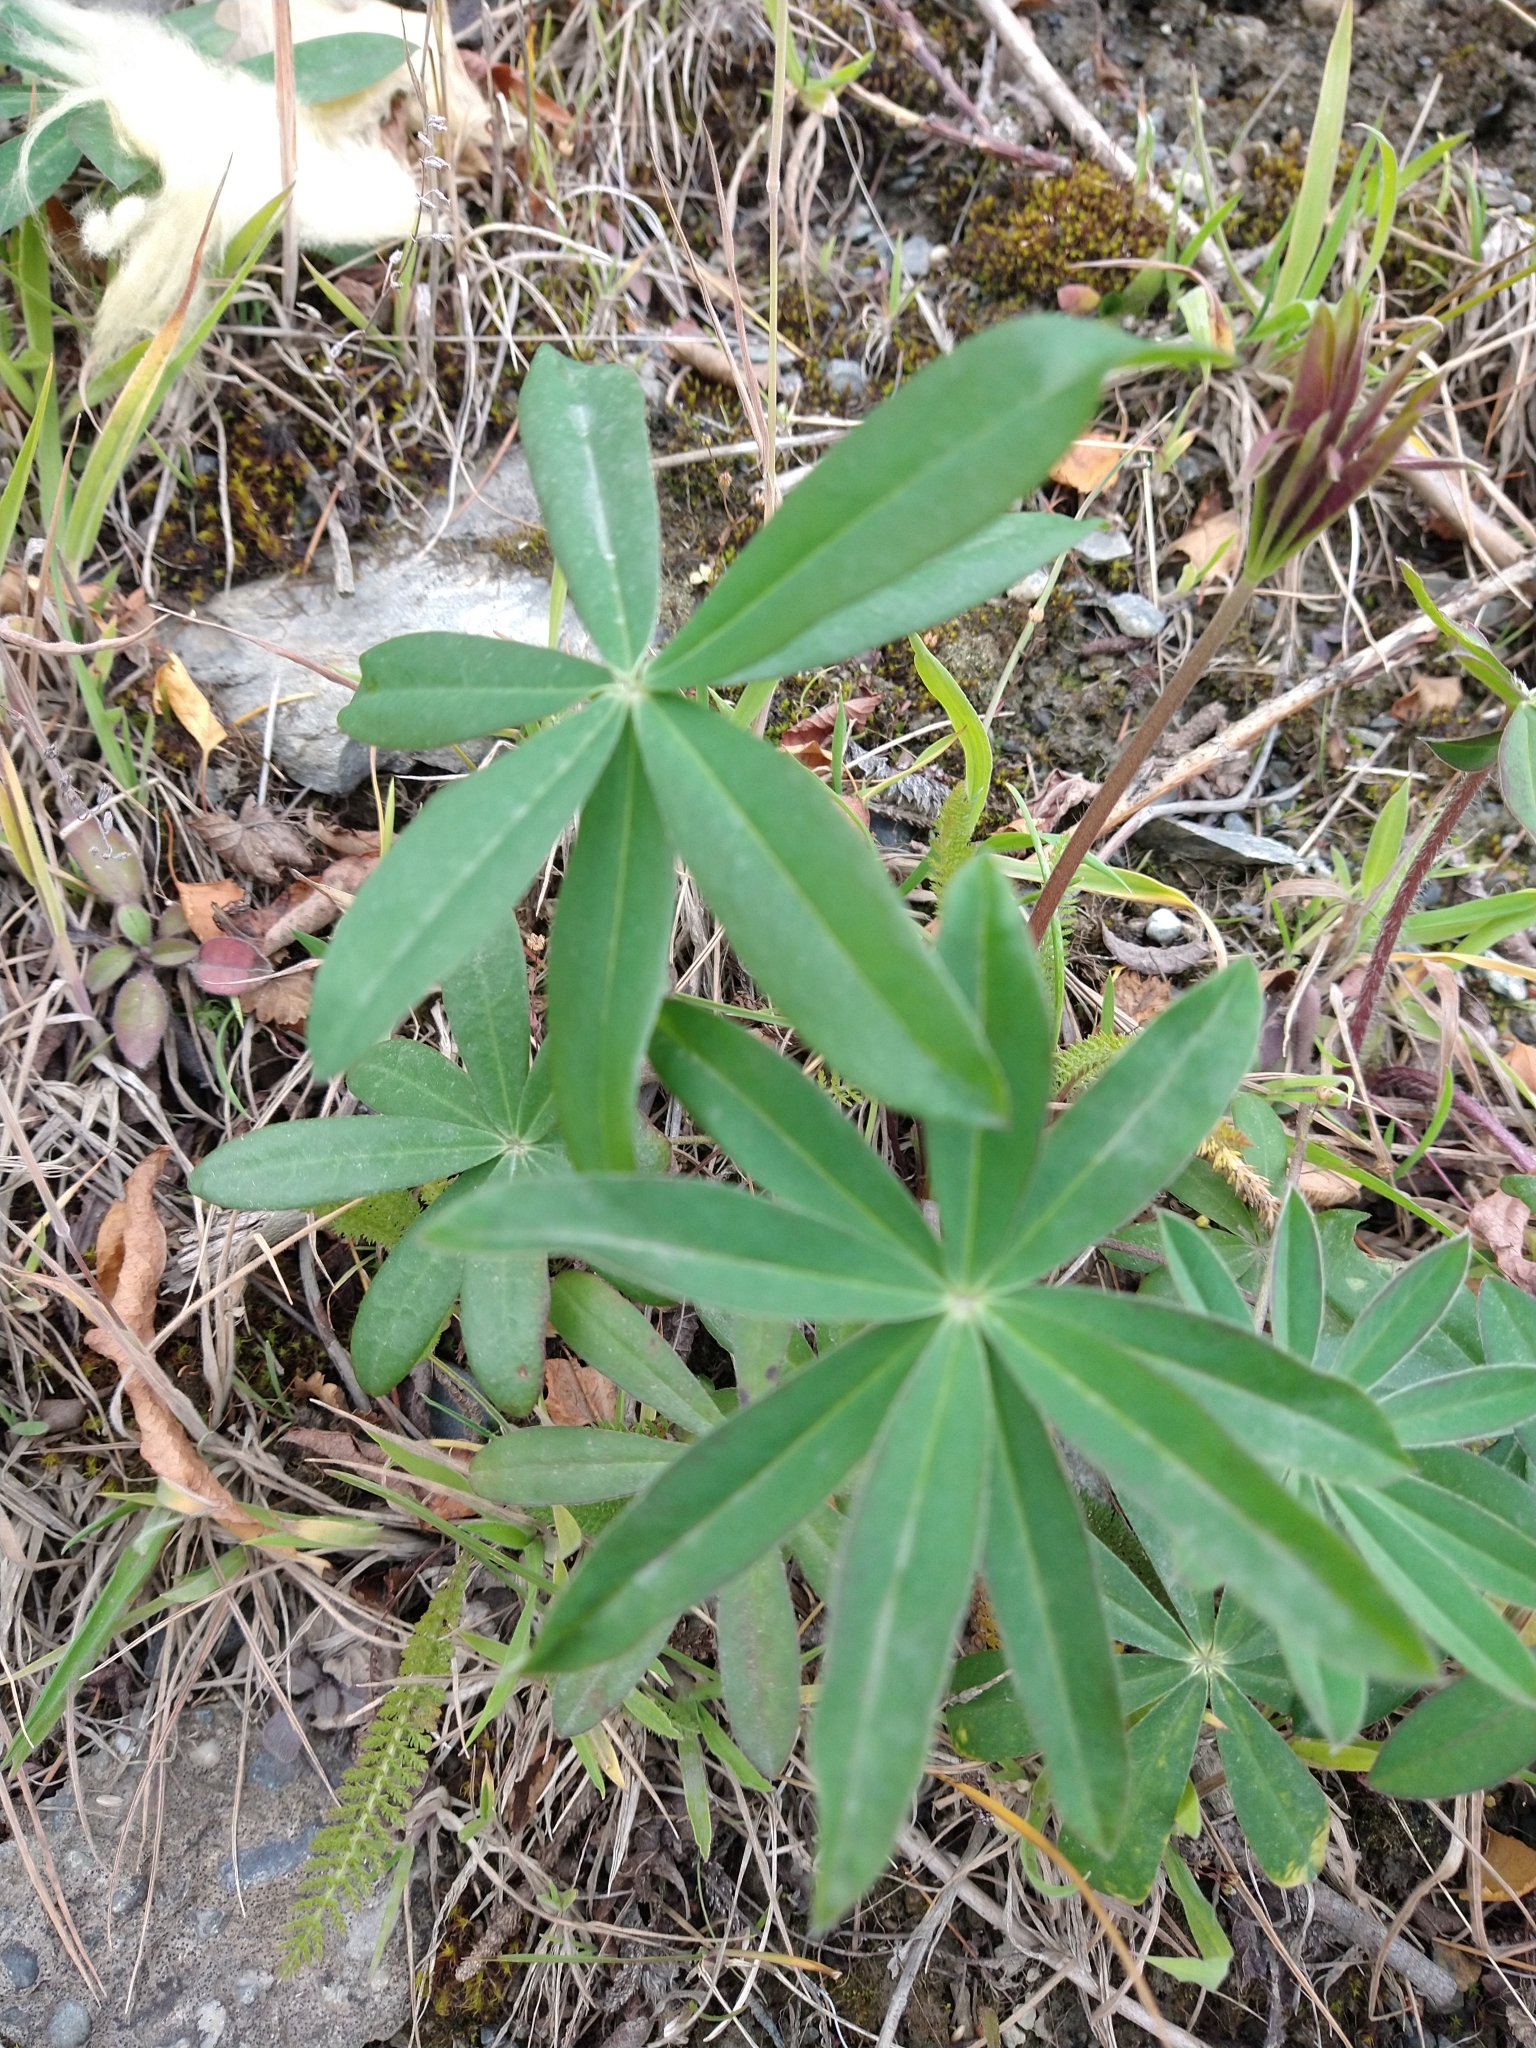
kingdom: Plantae
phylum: Tracheophyta
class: Magnoliopsida
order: Fabales
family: Fabaceae
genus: Lupinus
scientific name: Lupinus polyphyllus
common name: Garden lupin
